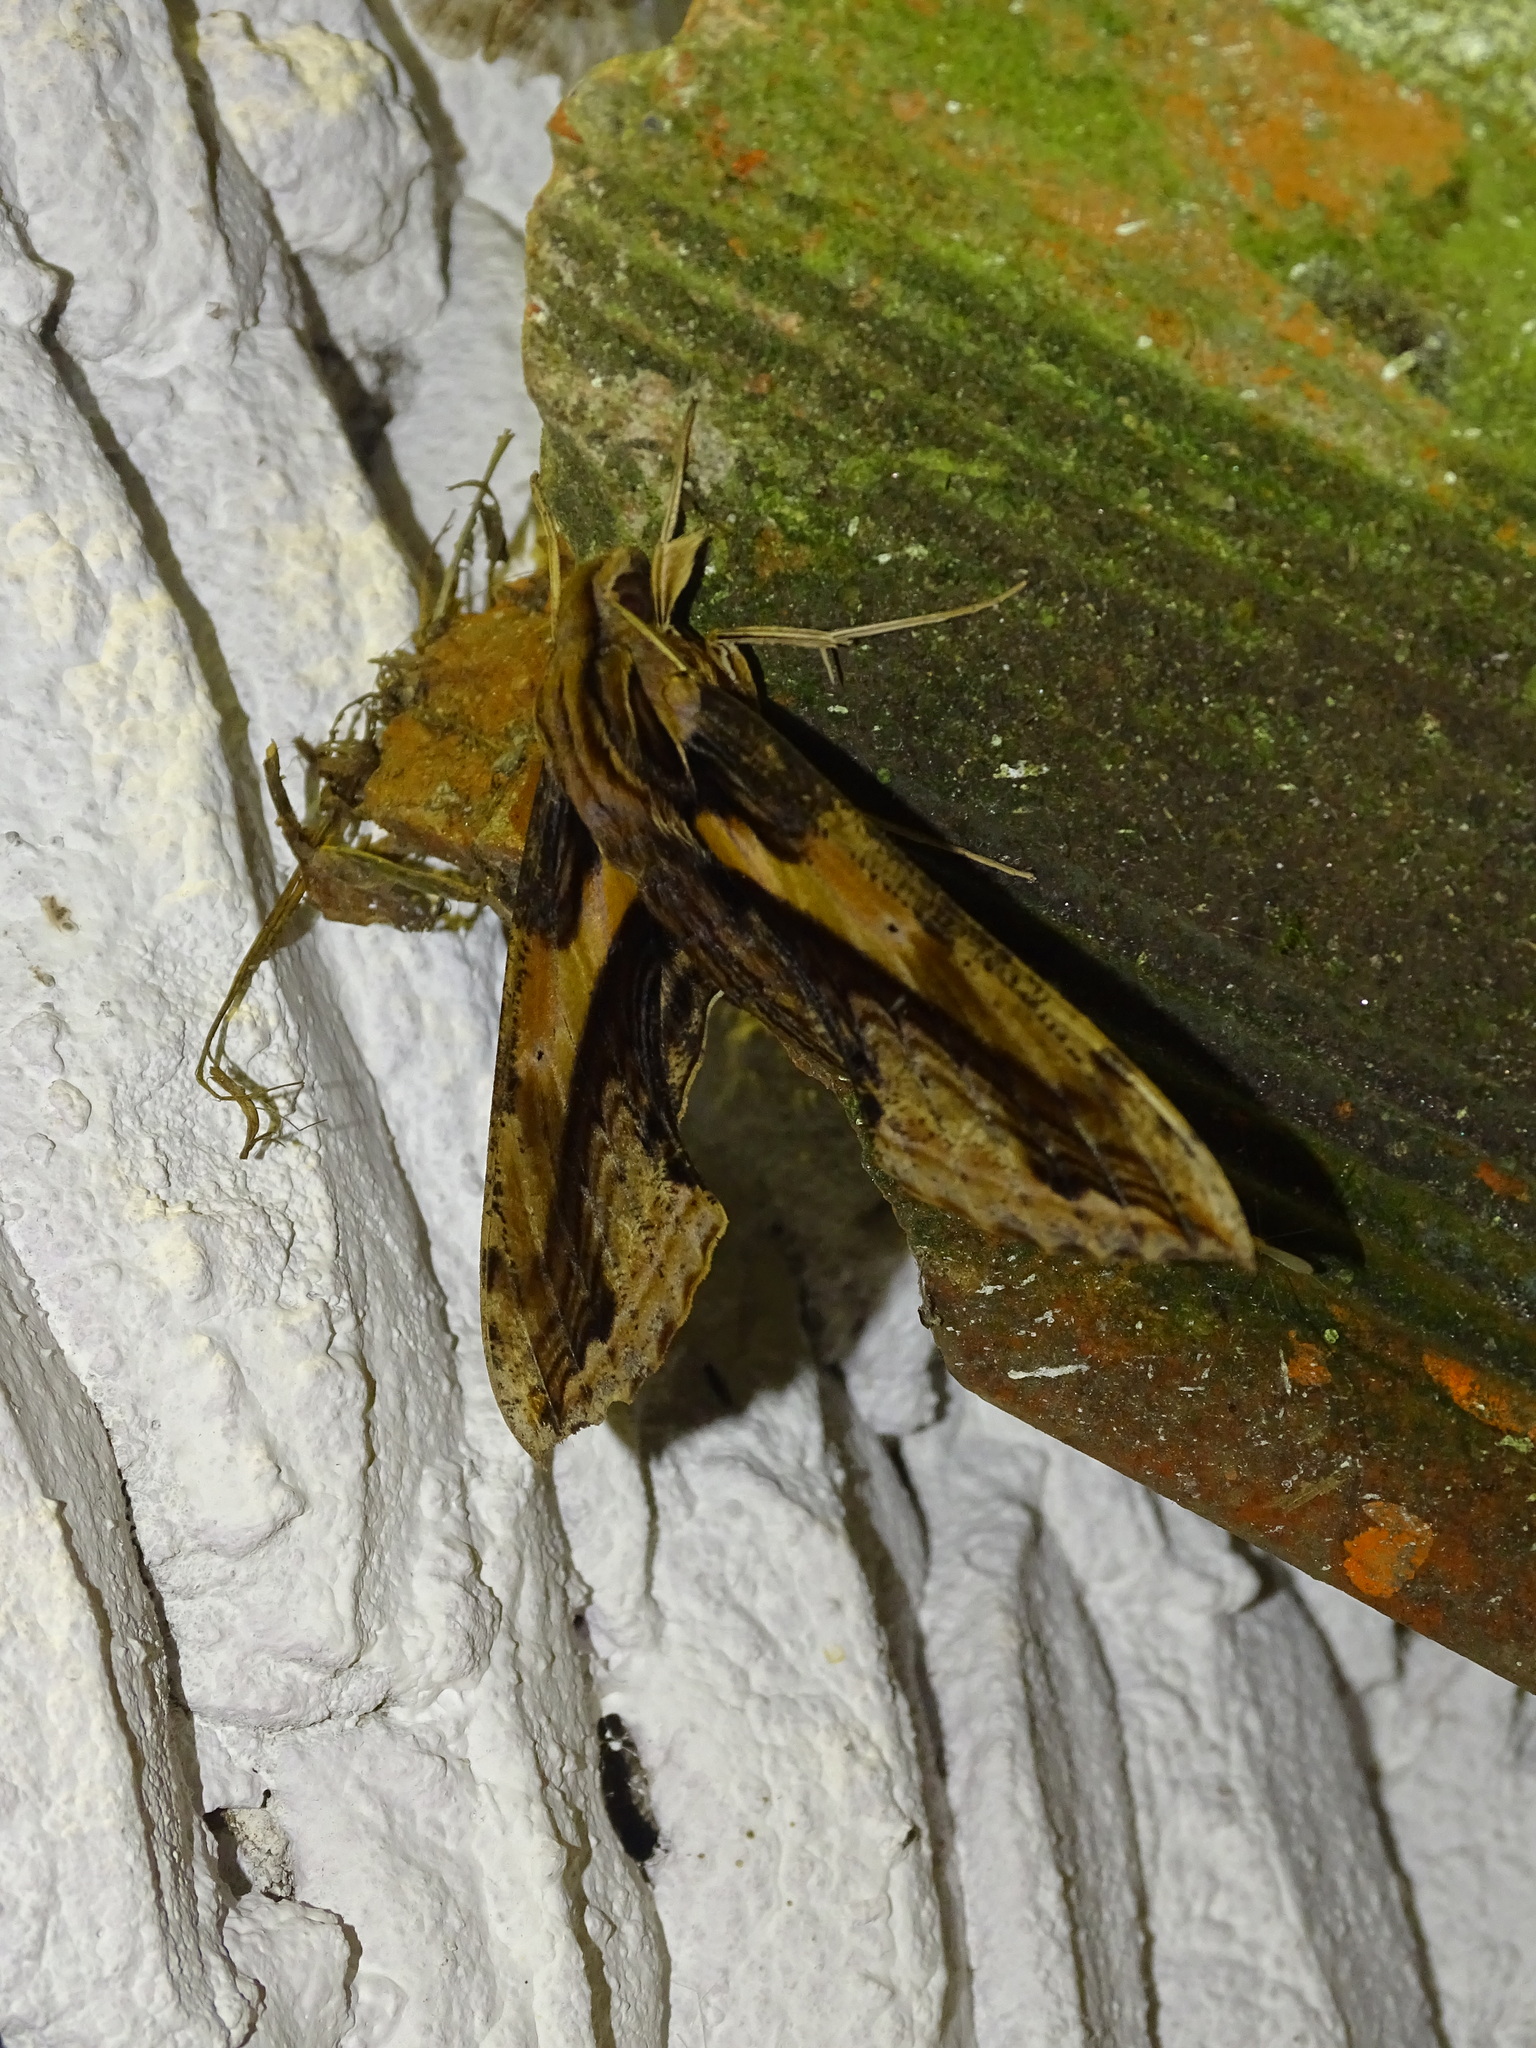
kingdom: Animalia
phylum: Arthropoda
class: Insecta
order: Lepidoptera
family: Sphingidae
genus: Xylophanes
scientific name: Xylophanes ceratomioides
